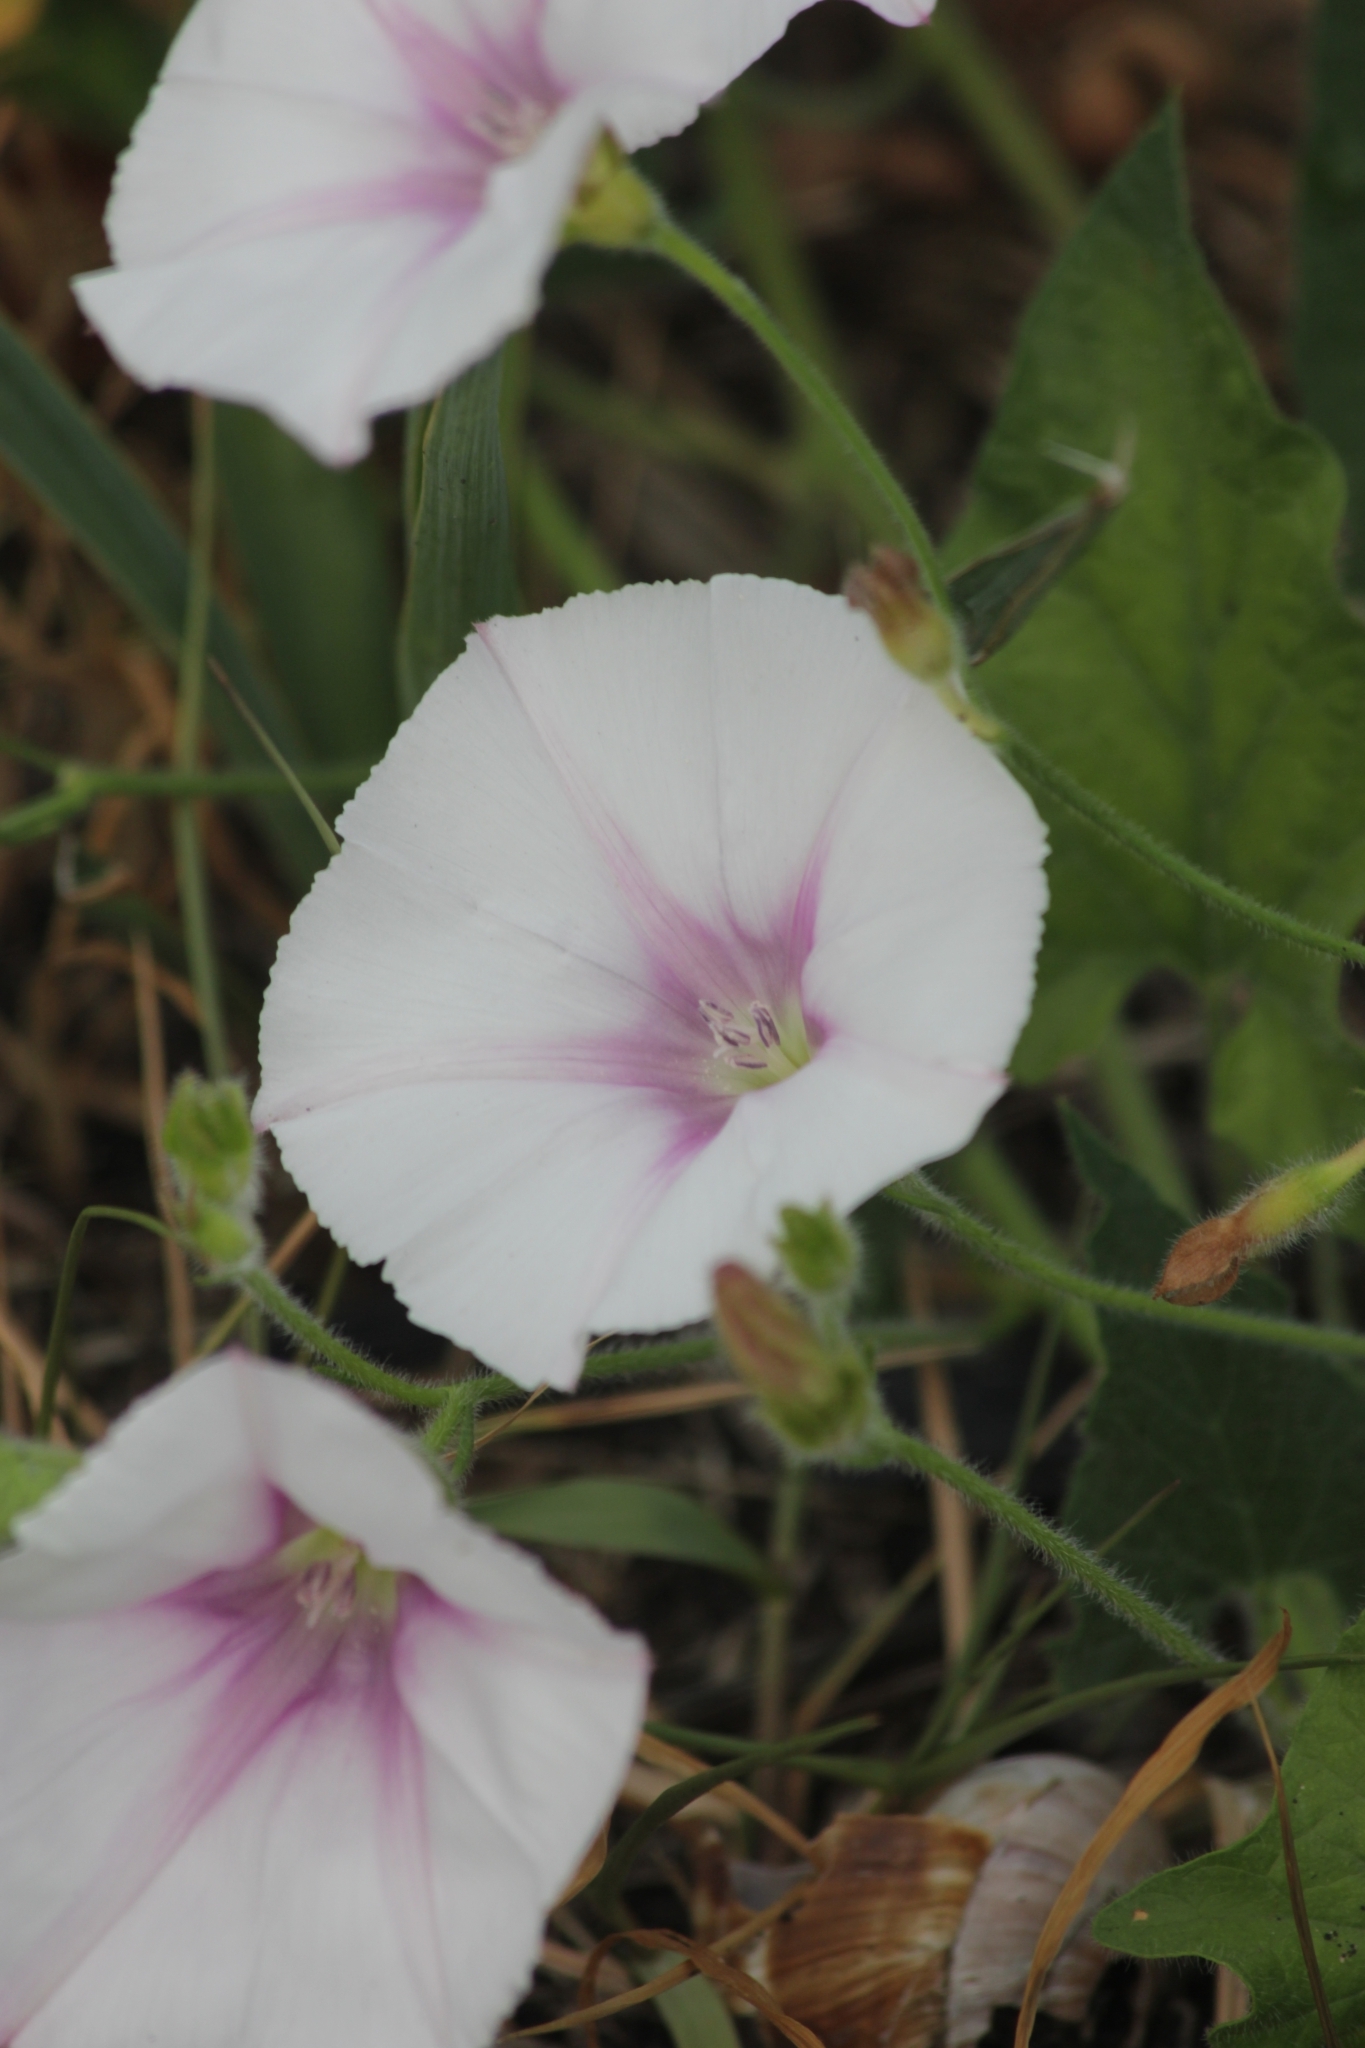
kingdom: Plantae
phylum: Tracheophyta
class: Magnoliopsida
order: Solanales
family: Convolvulaceae
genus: Convolvulus
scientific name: Convolvulus arvensis
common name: Field bindweed
